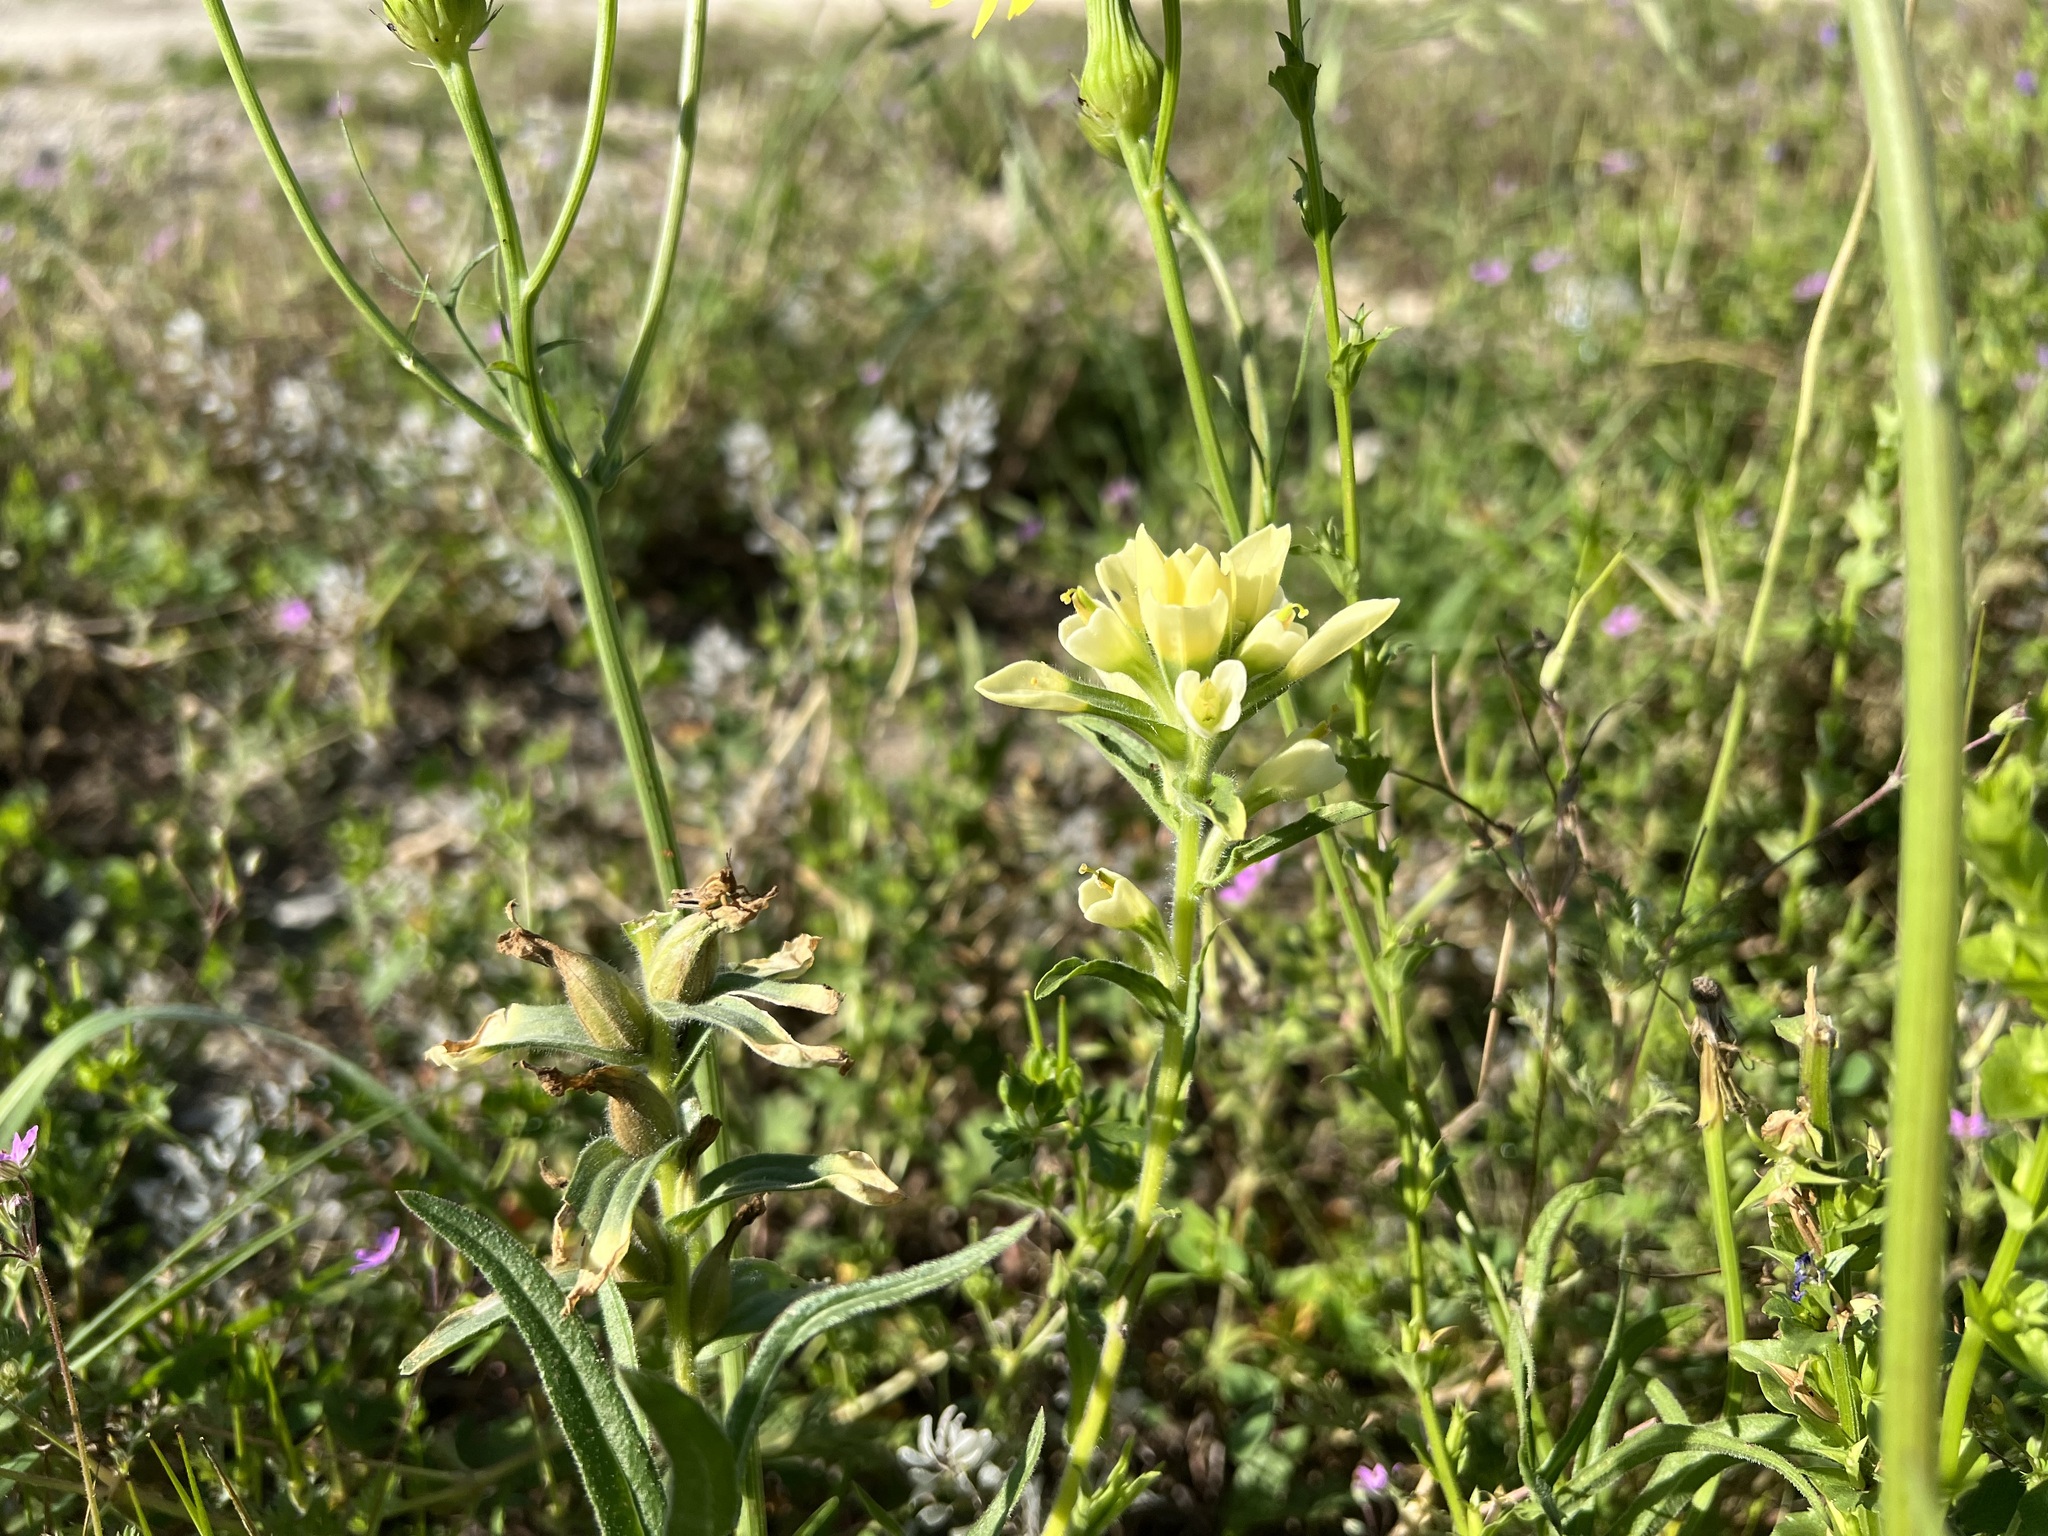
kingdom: Plantae
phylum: Tracheophyta
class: Magnoliopsida
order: Lamiales
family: Orobanchaceae
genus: Castilleja
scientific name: Castilleja indivisa
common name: Texas paintbrush
